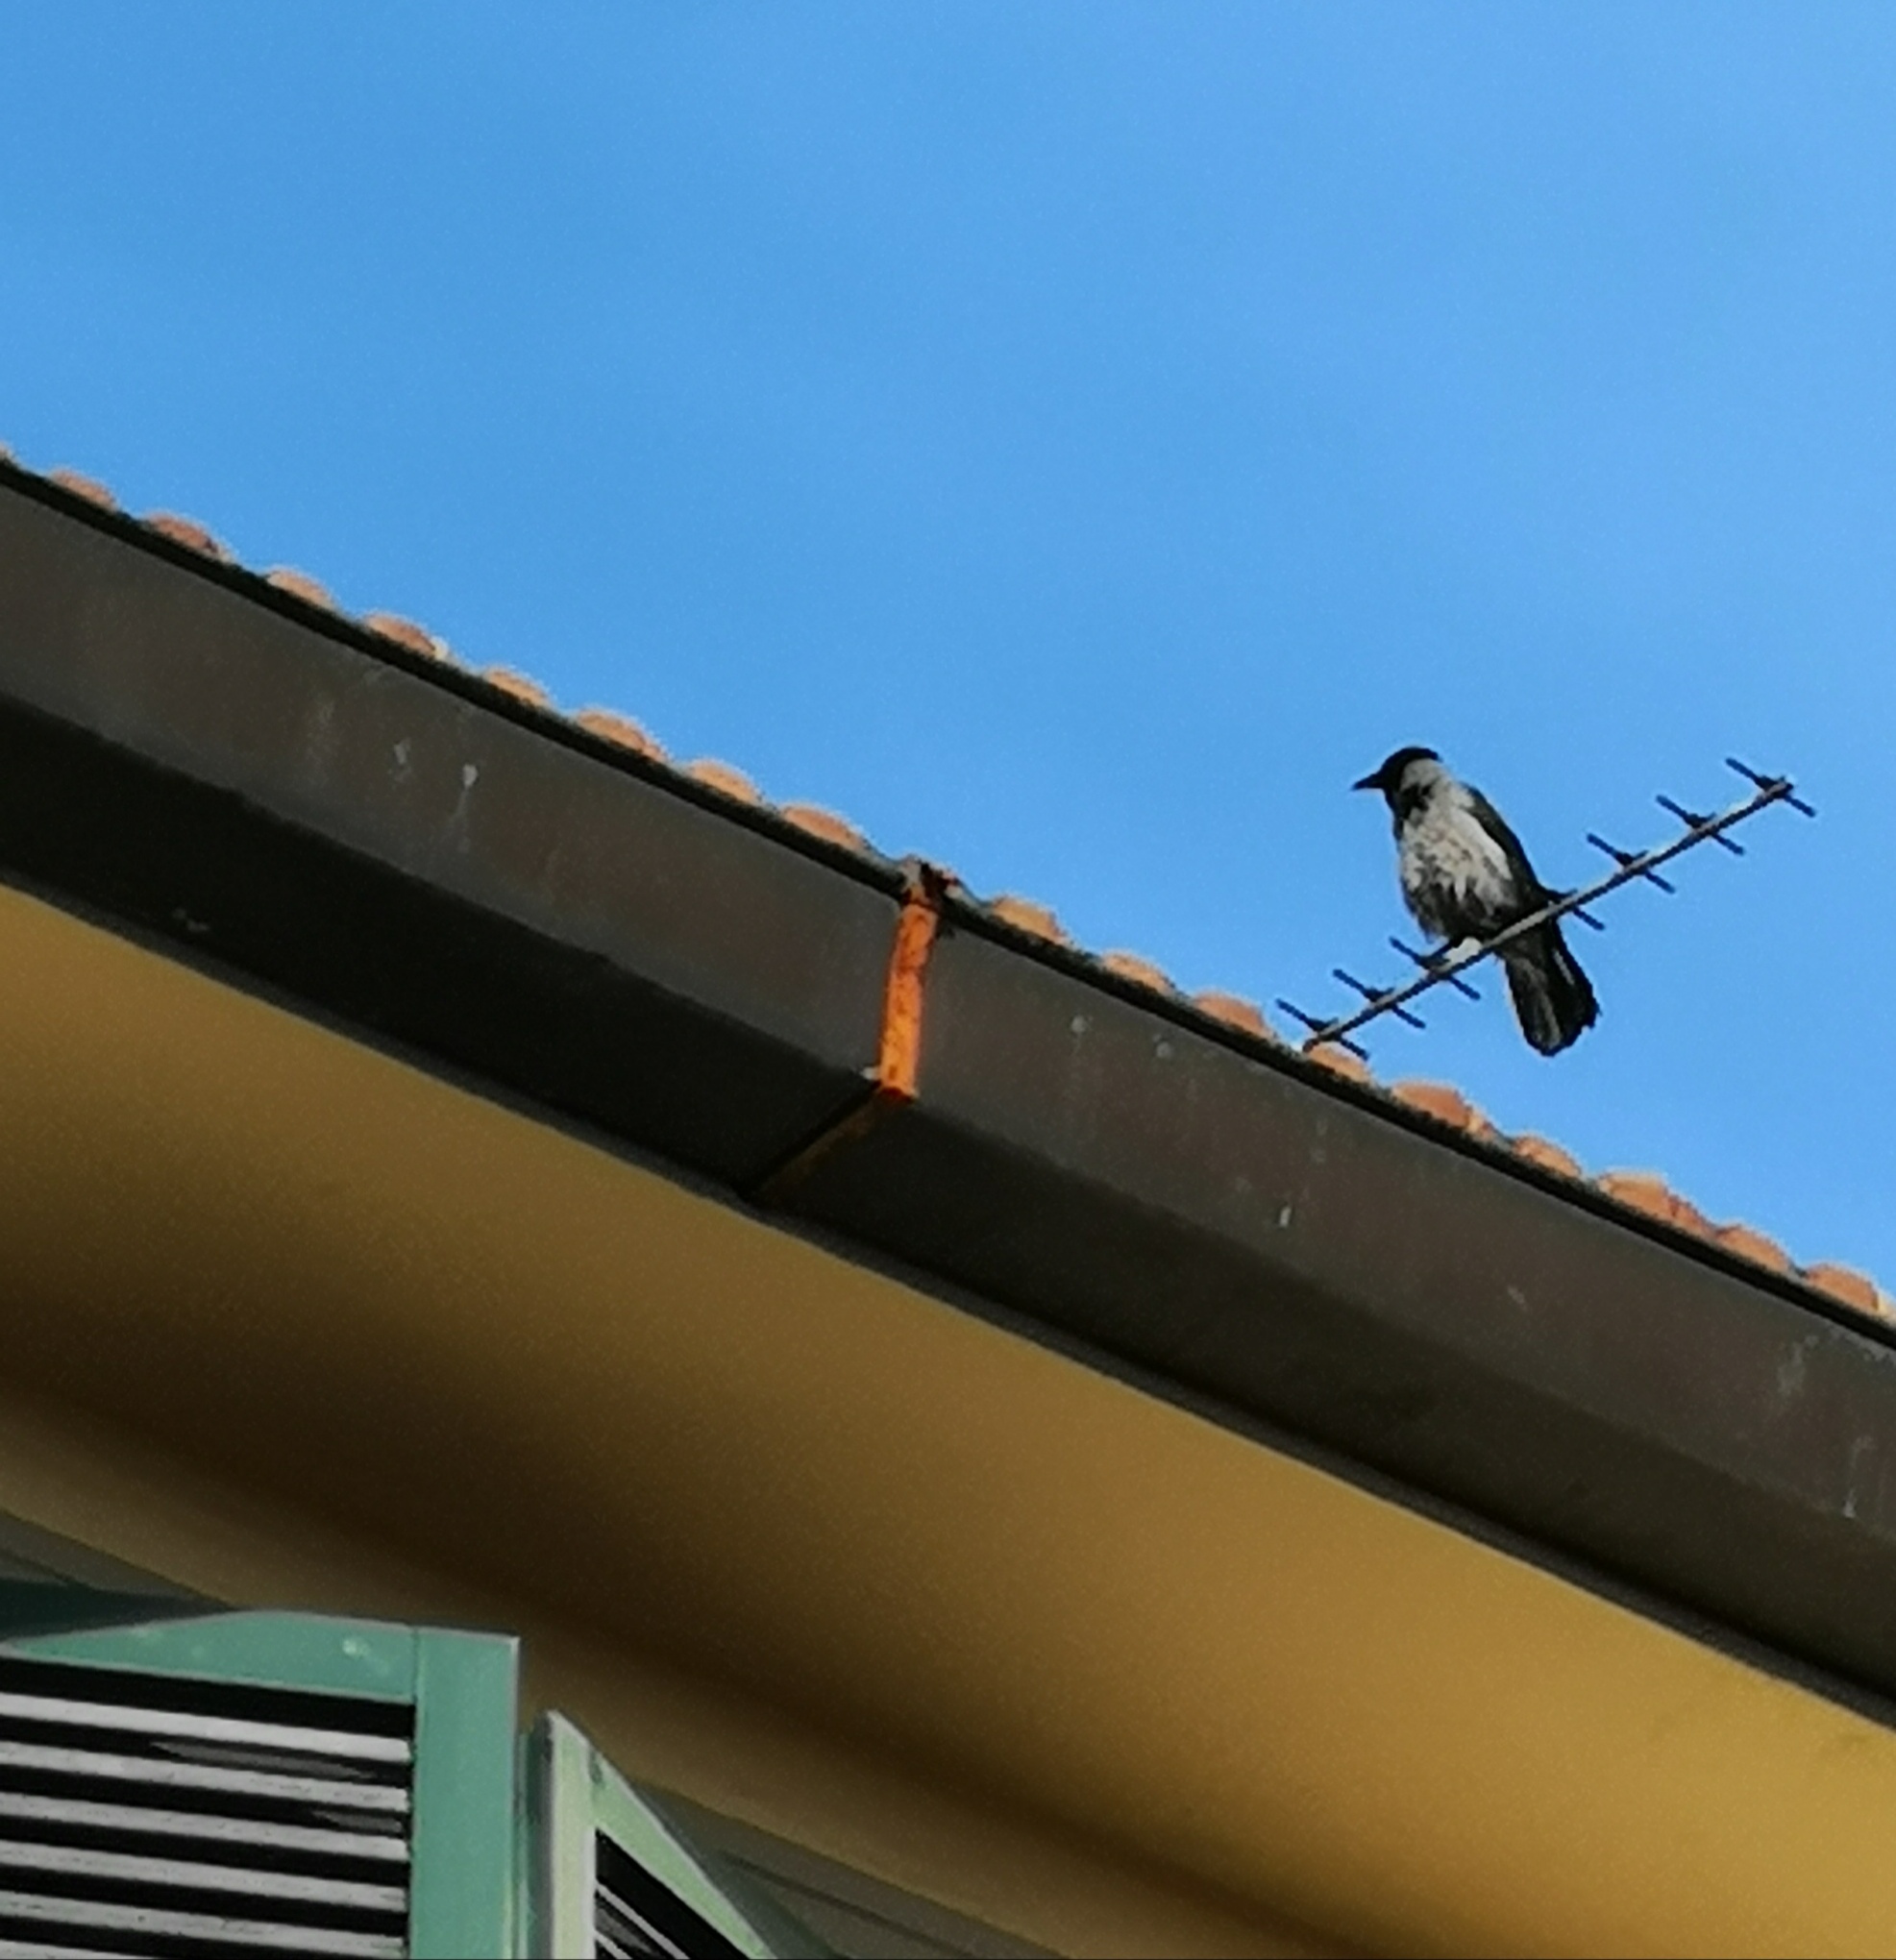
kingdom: Animalia
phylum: Chordata
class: Aves
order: Passeriformes
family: Corvidae
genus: Corvus
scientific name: Corvus cornix
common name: Hooded crow
